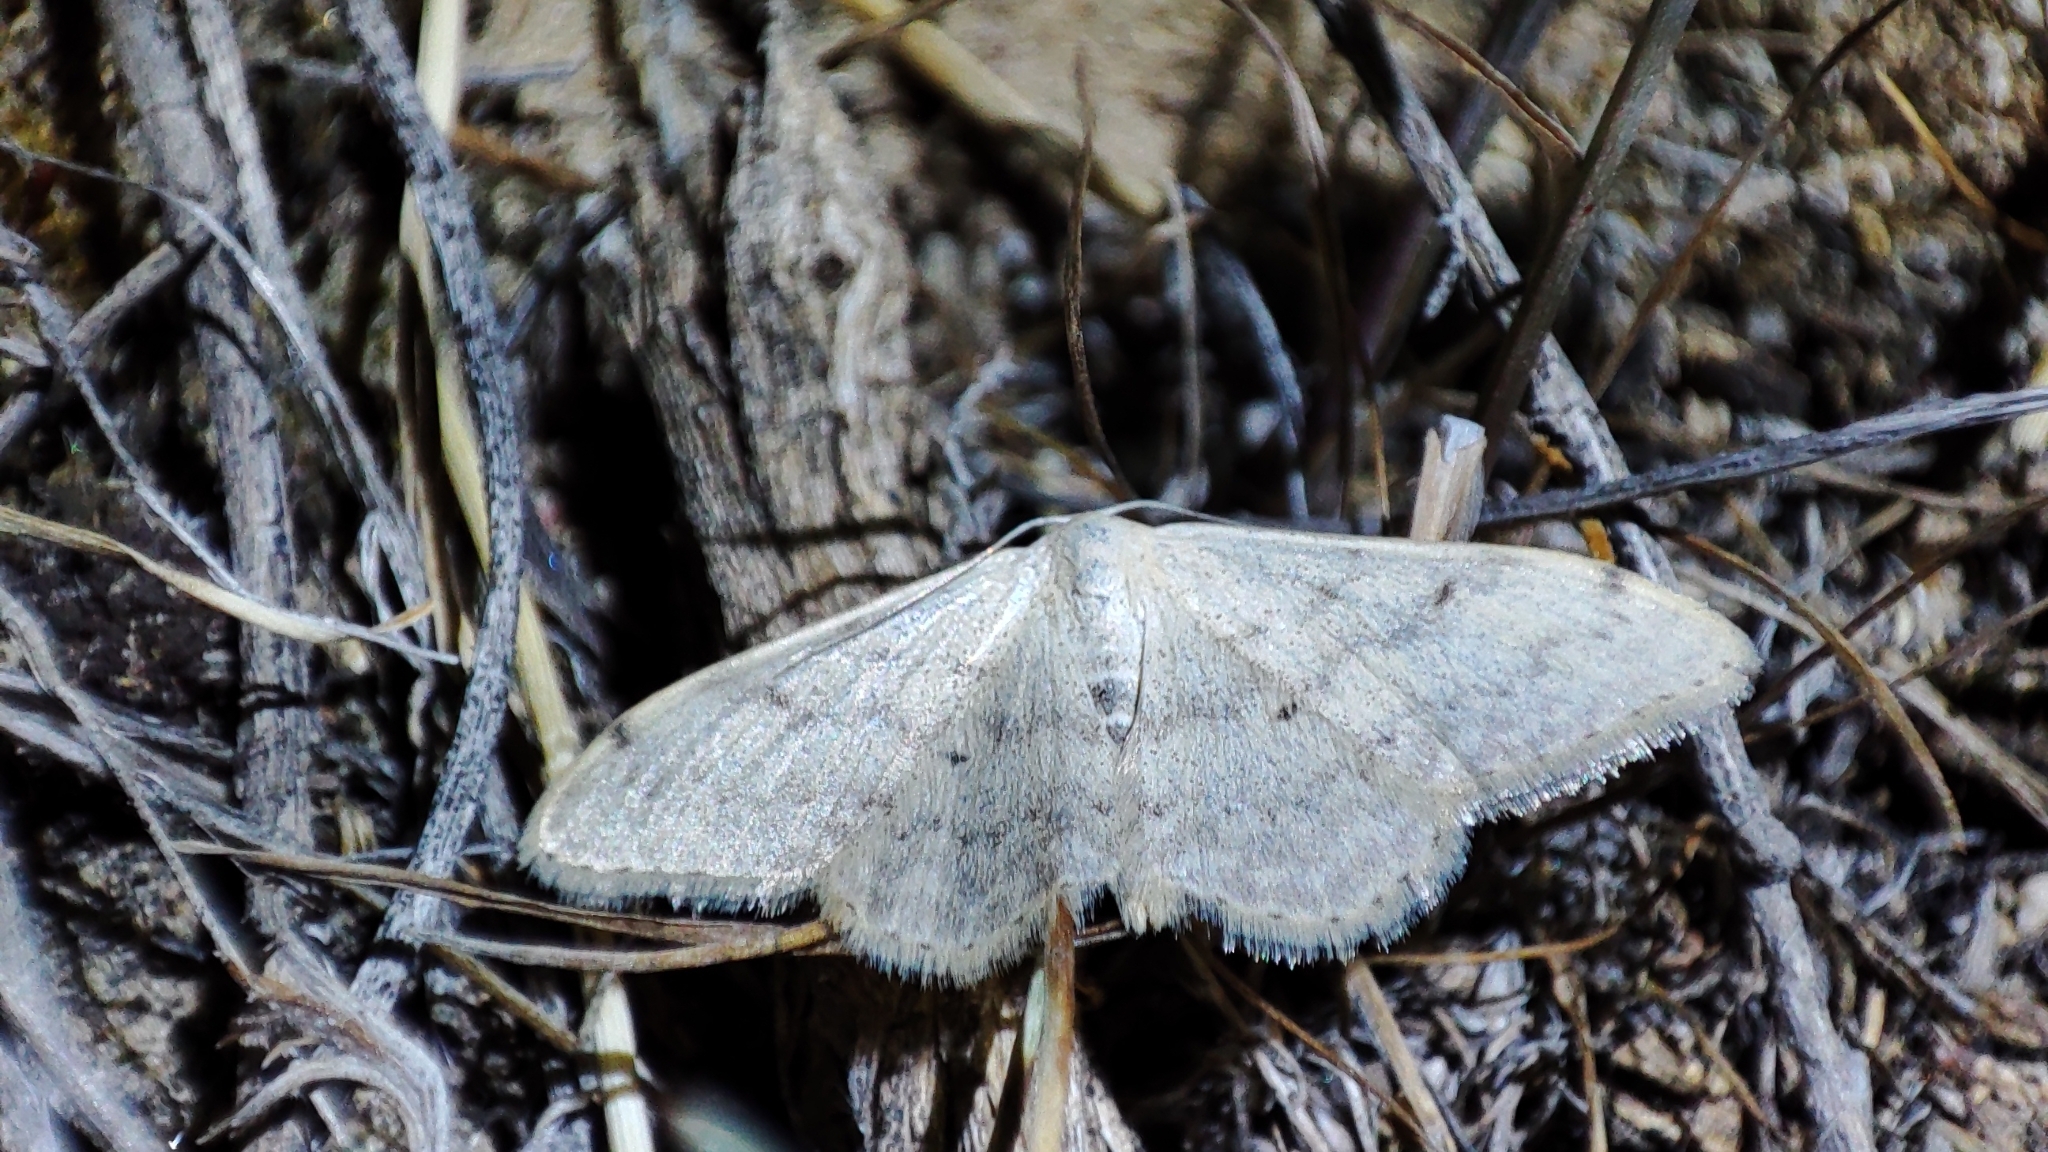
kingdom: Animalia
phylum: Arthropoda
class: Insecta
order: Lepidoptera
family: Geometridae
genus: Glossotrophia
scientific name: Glossotrophia confinaria
